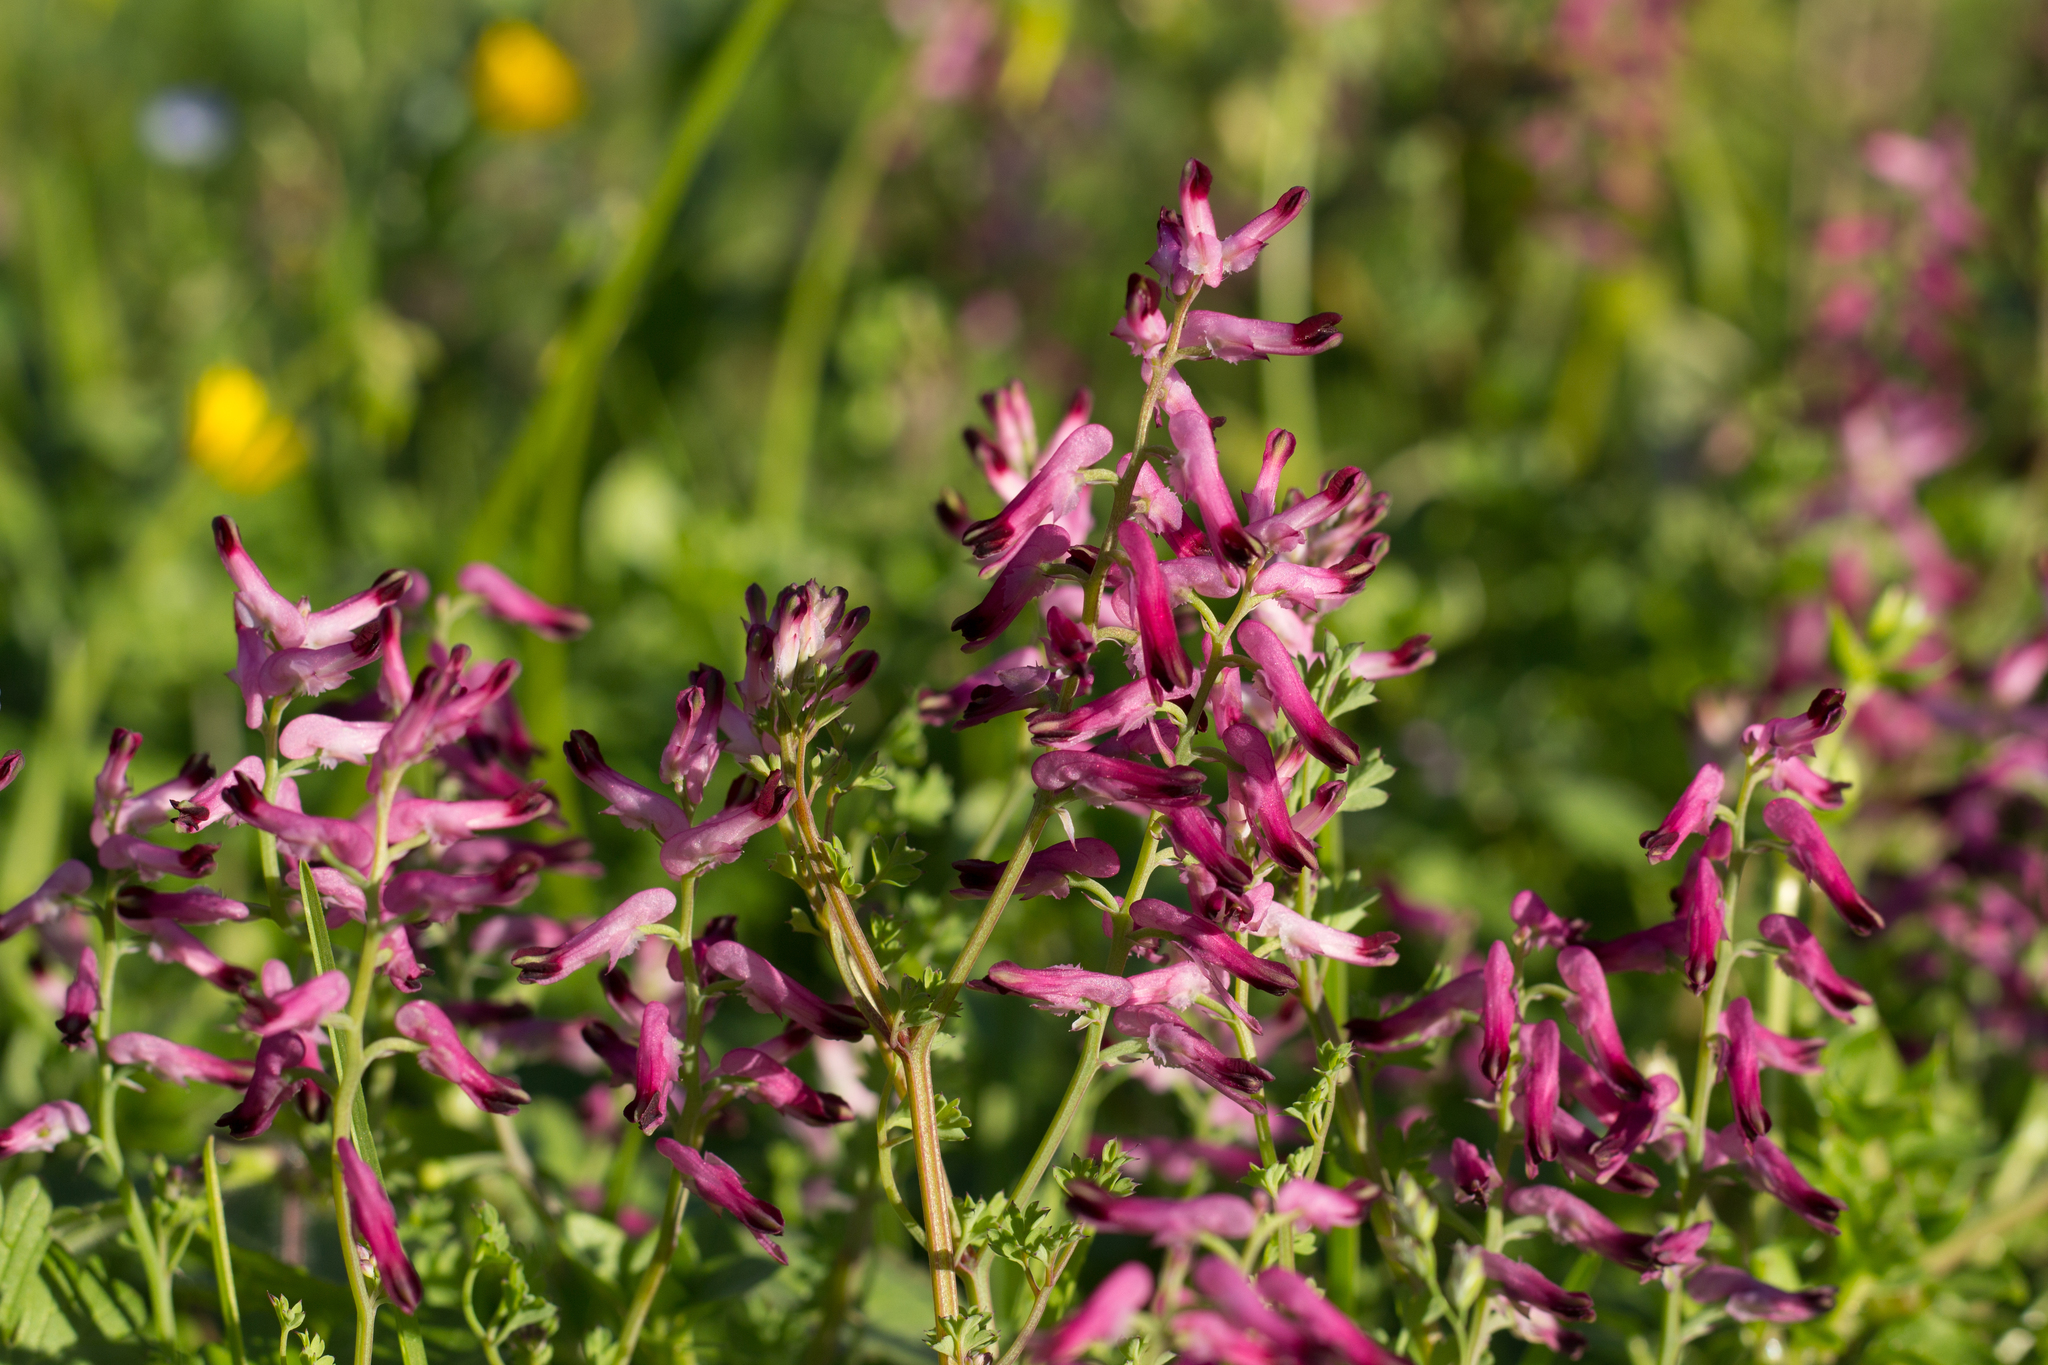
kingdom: Plantae
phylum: Tracheophyta
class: Magnoliopsida
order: Ranunculales
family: Papaveraceae
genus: Fumaria
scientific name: Fumaria officinalis
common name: Common fumitory
